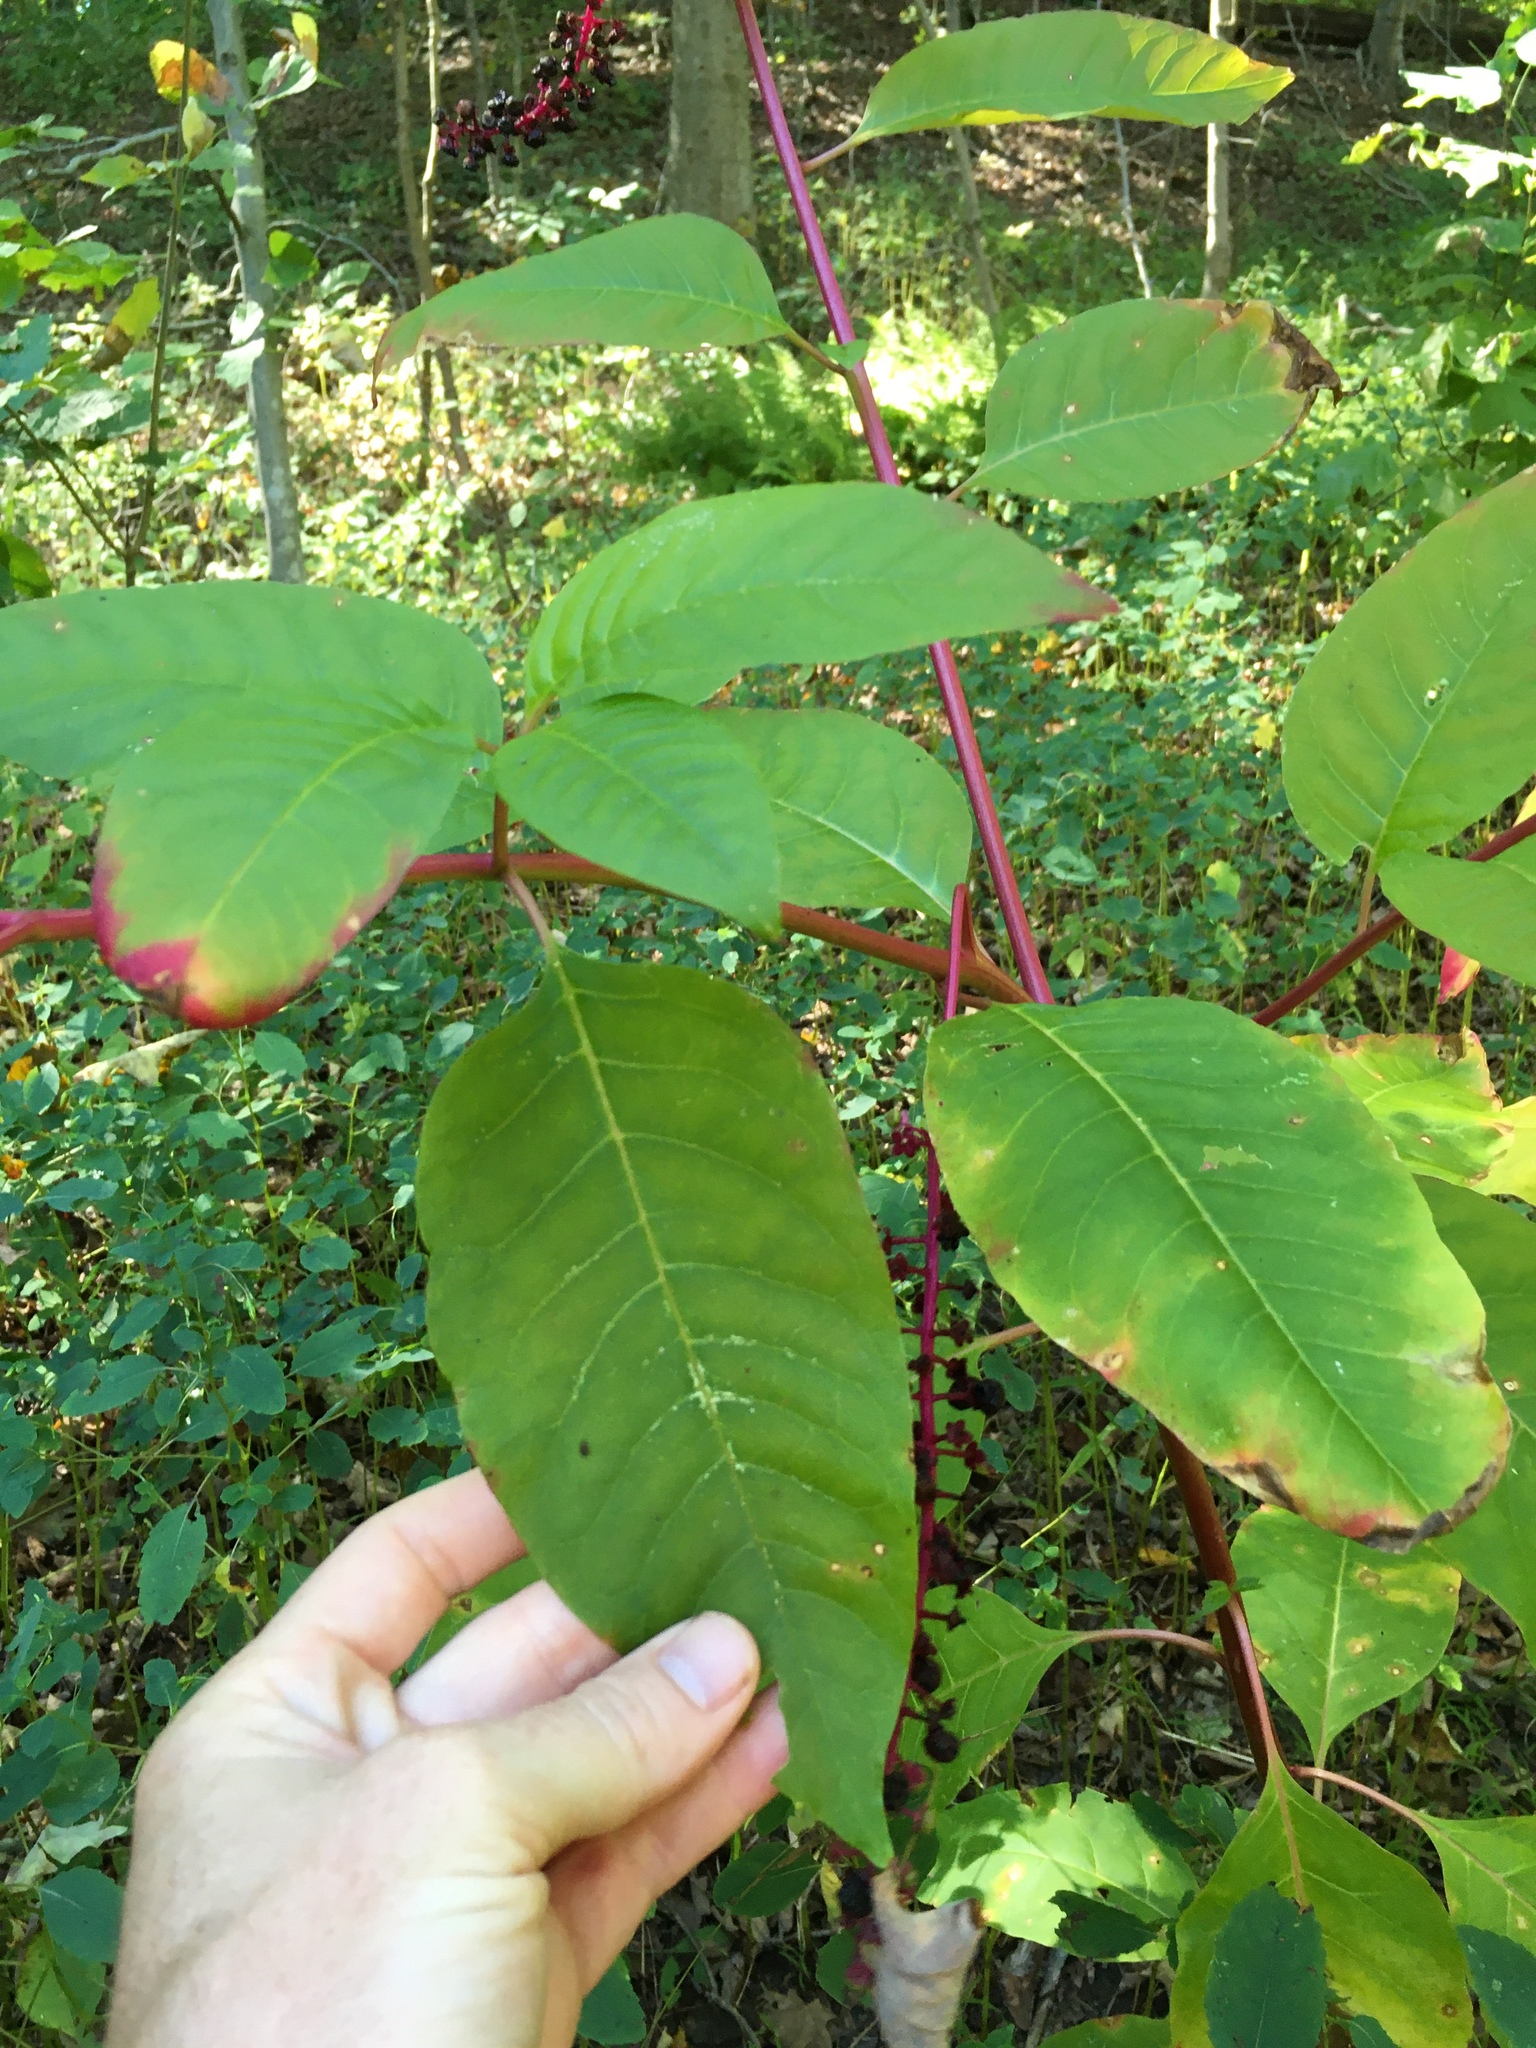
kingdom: Plantae
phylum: Tracheophyta
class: Magnoliopsida
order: Caryophyllales
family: Phytolaccaceae
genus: Phytolacca
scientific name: Phytolacca americana
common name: American pokeweed
